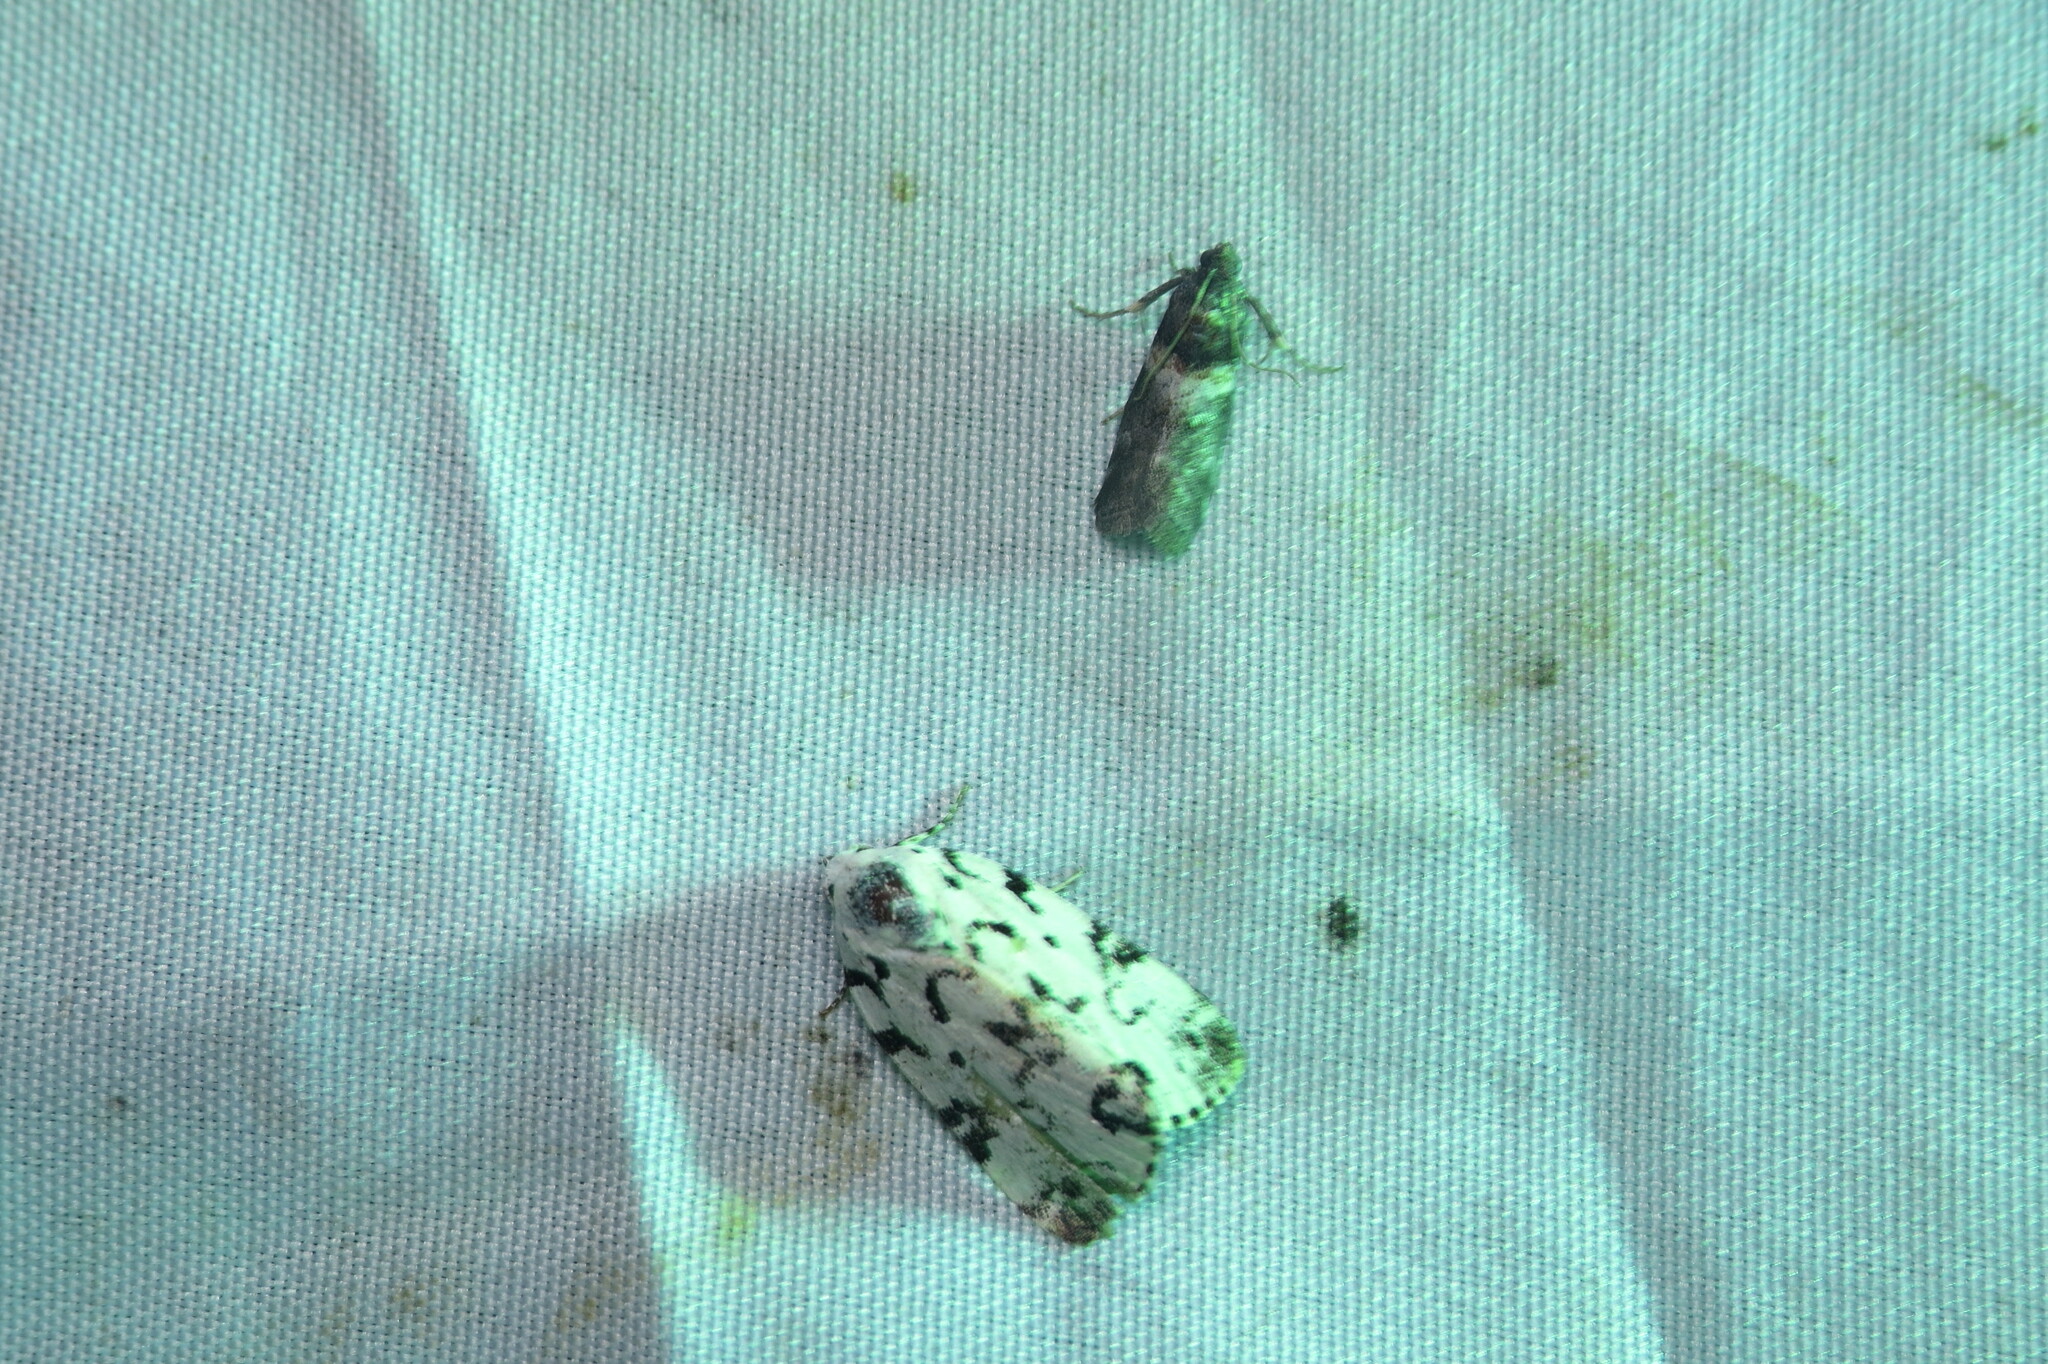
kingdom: Animalia
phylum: Arthropoda
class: Insecta
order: Lepidoptera
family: Noctuidae
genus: Polygrammate
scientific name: Polygrammate hebraeicum
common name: Hebrew moth
